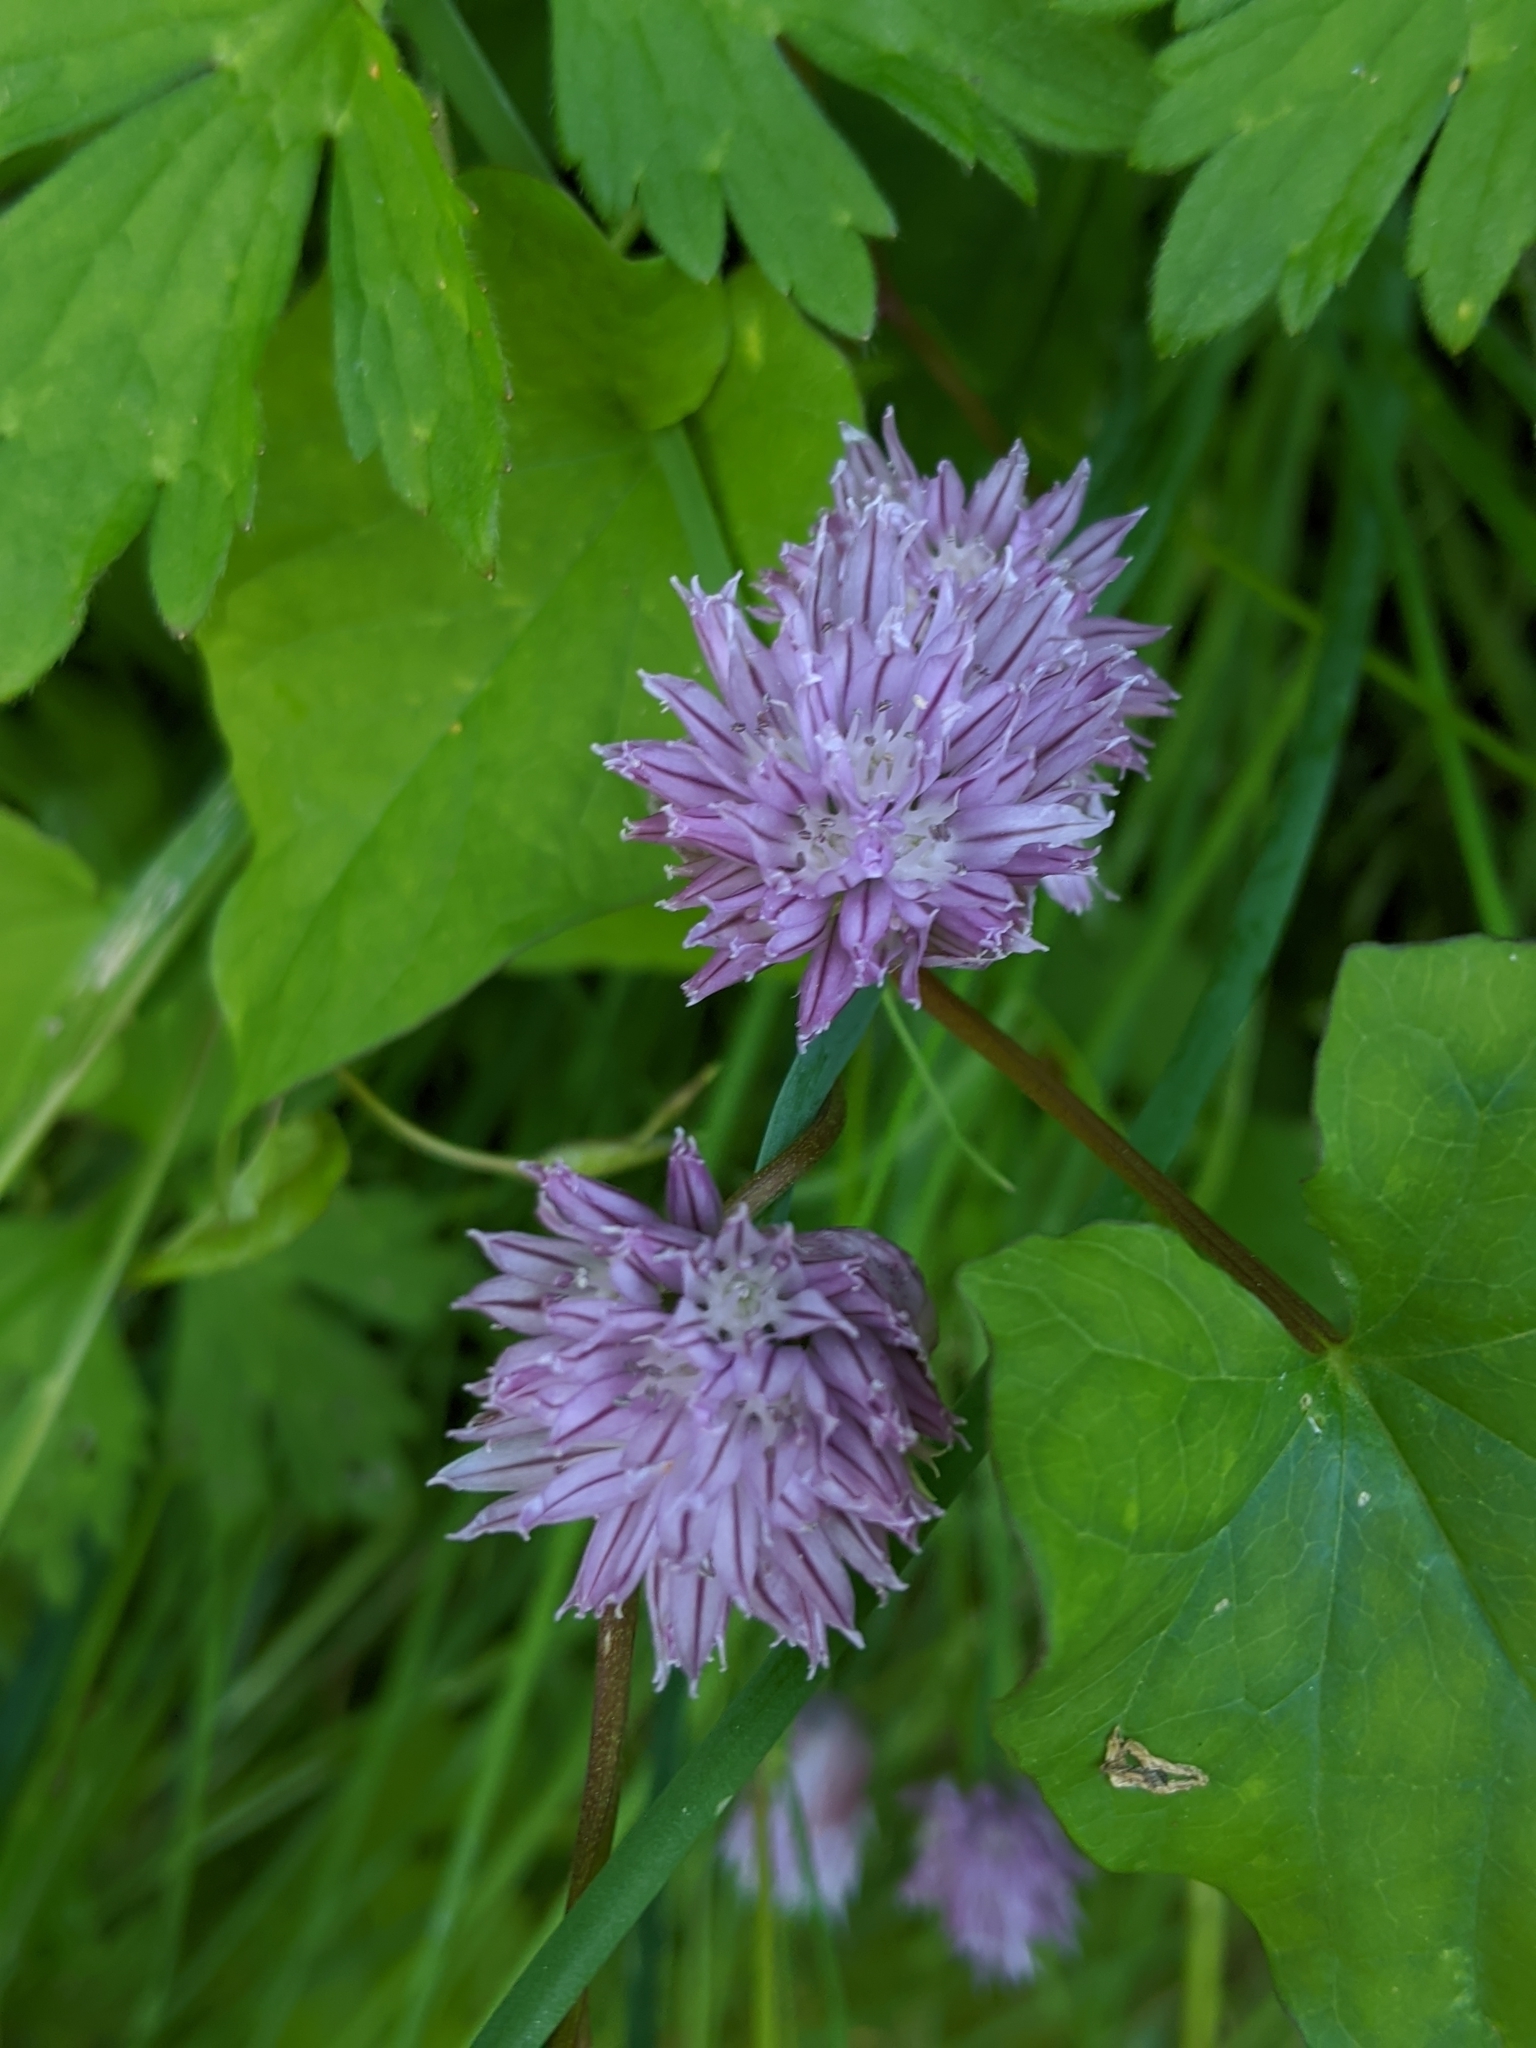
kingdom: Plantae
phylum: Tracheophyta
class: Liliopsida
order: Asparagales
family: Amaryllidaceae
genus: Allium
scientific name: Allium schoenoprasum
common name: Chives
